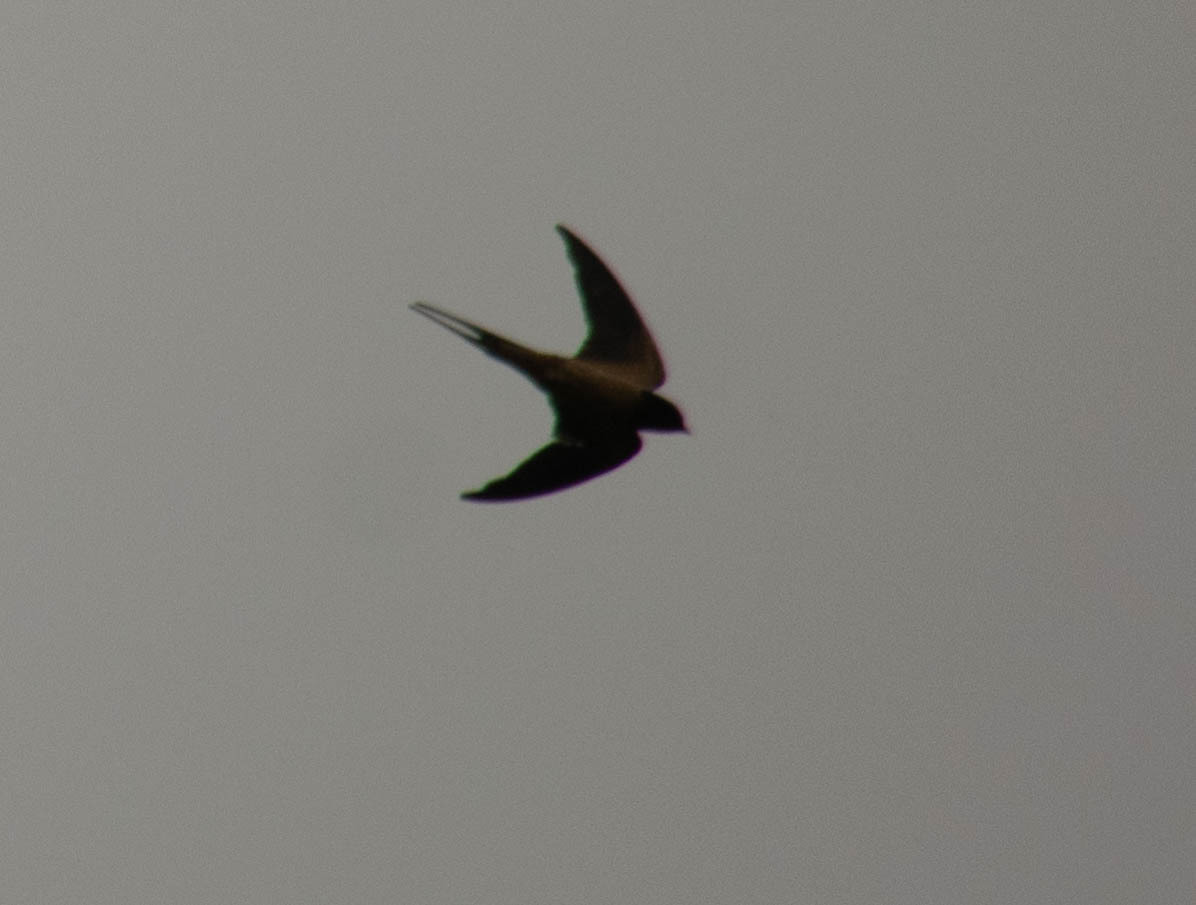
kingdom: Animalia
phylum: Chordata
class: Aves
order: Passeriformes
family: Hirundinidae
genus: Hirundo
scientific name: Hirundo rustica
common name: Barn swallow
